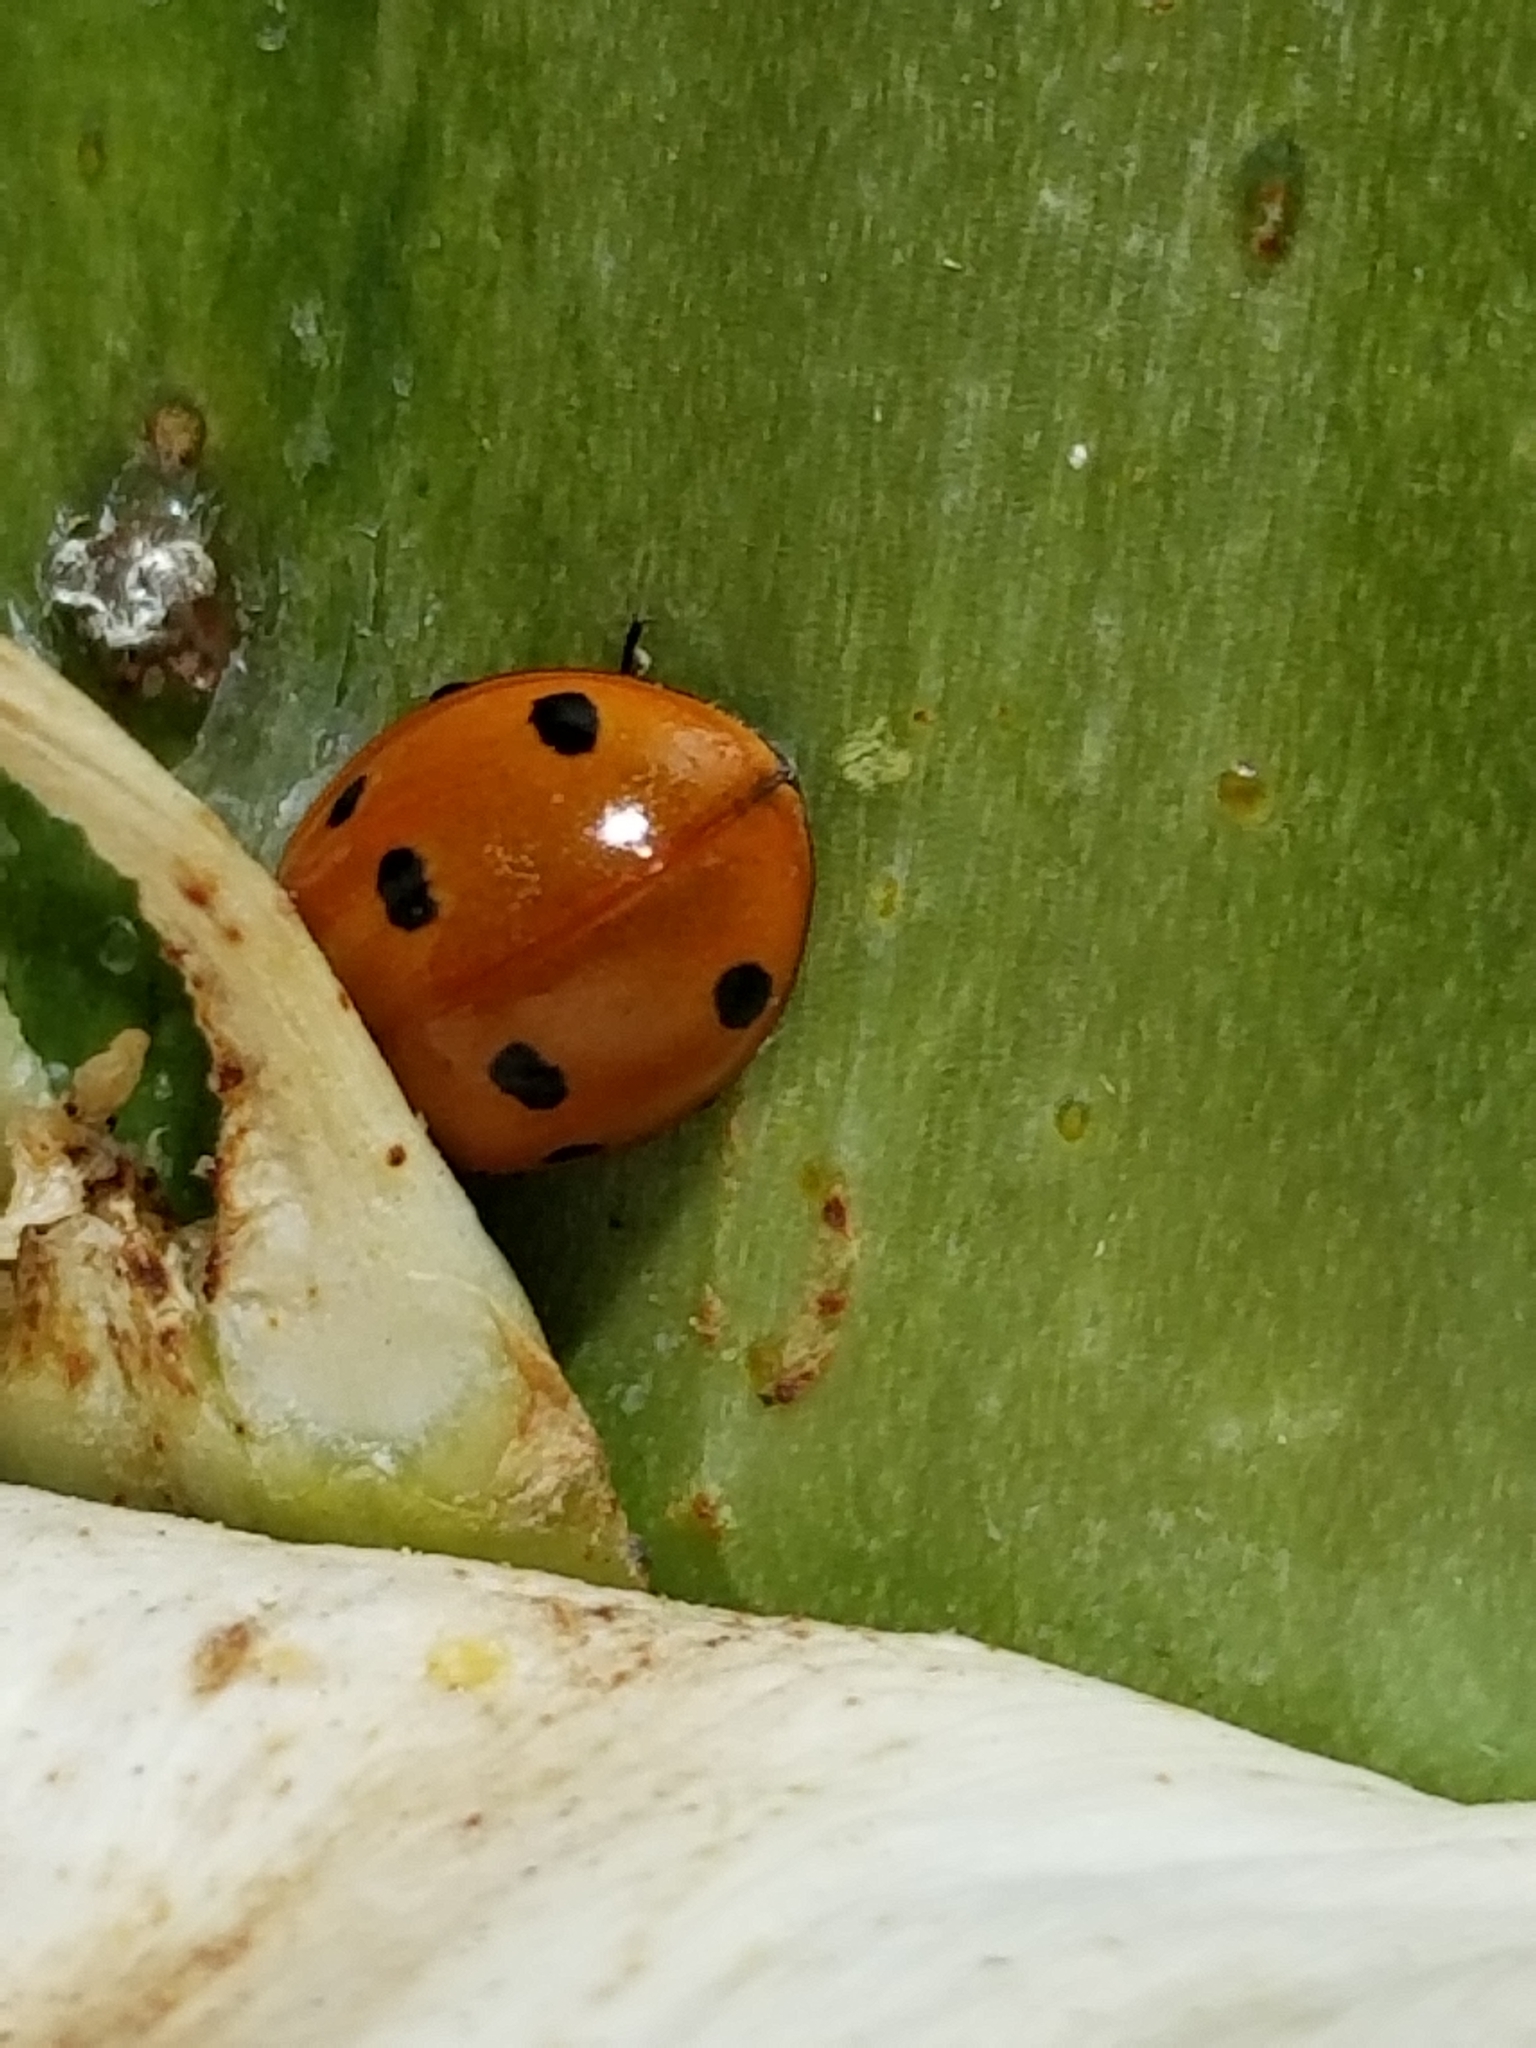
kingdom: Animalia
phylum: Arthropoda
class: Insecta
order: Coleoptera
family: Coccinellidae
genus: Coccinella
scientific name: Coccinella septempunctata
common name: Sevenspotted lady beetle
